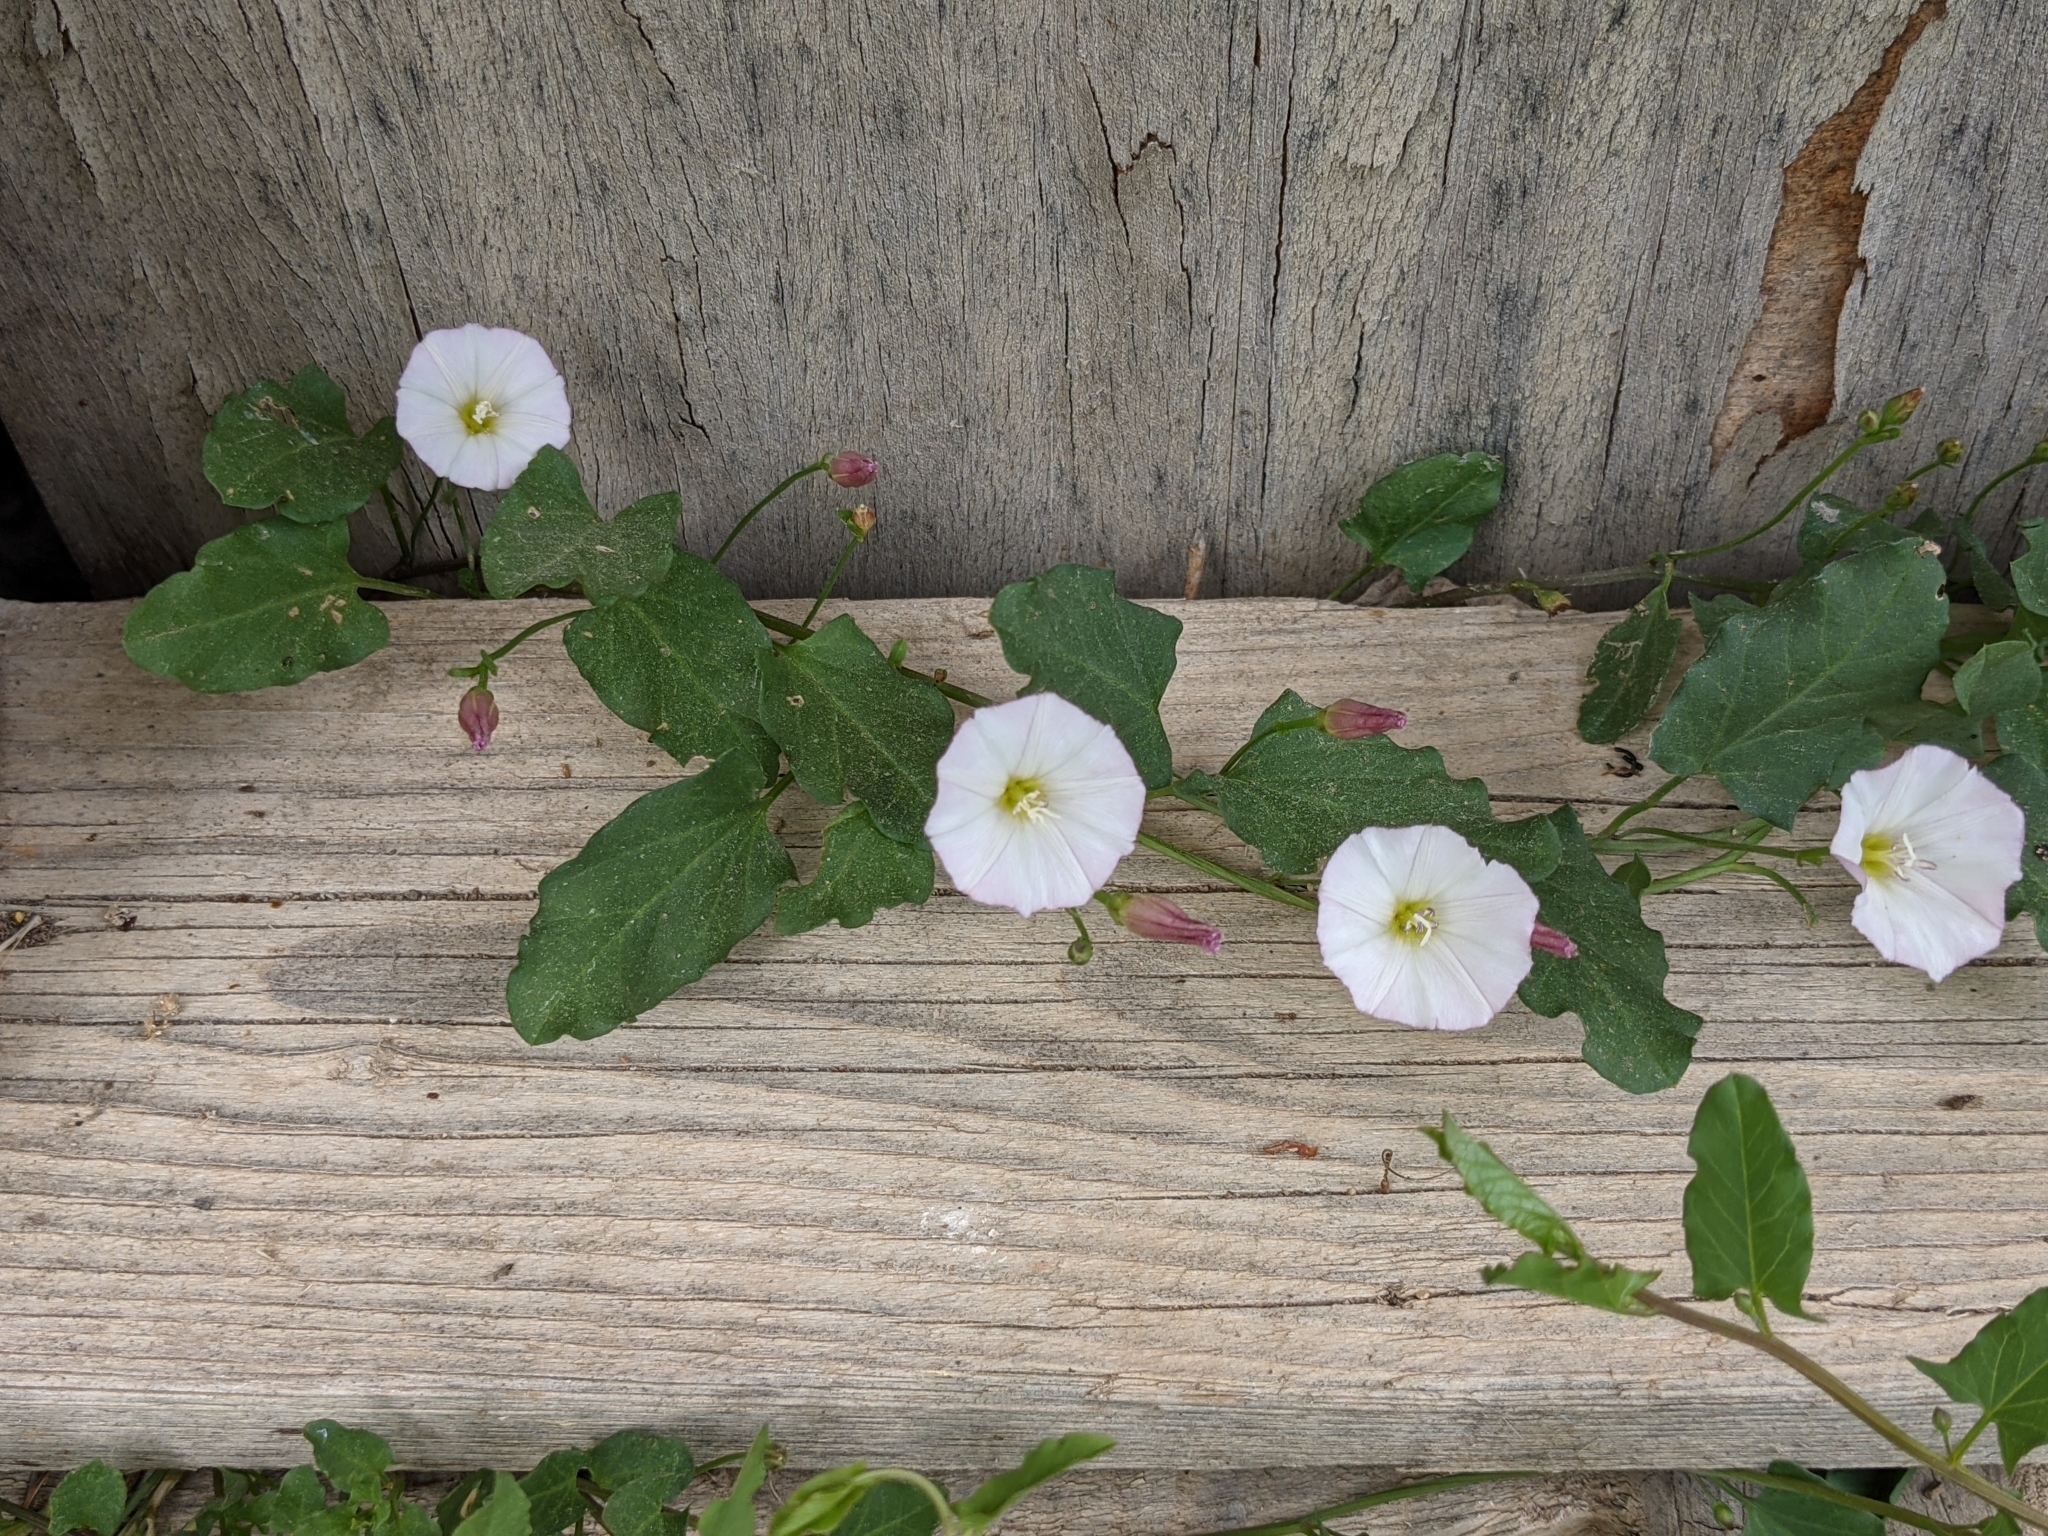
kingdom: Plantae
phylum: Tracheophyta
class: Magnoliopsida
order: Solanales
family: Convolvulaceae
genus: Convolvulus
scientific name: Convolvulus arvensis
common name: Field bindweed
